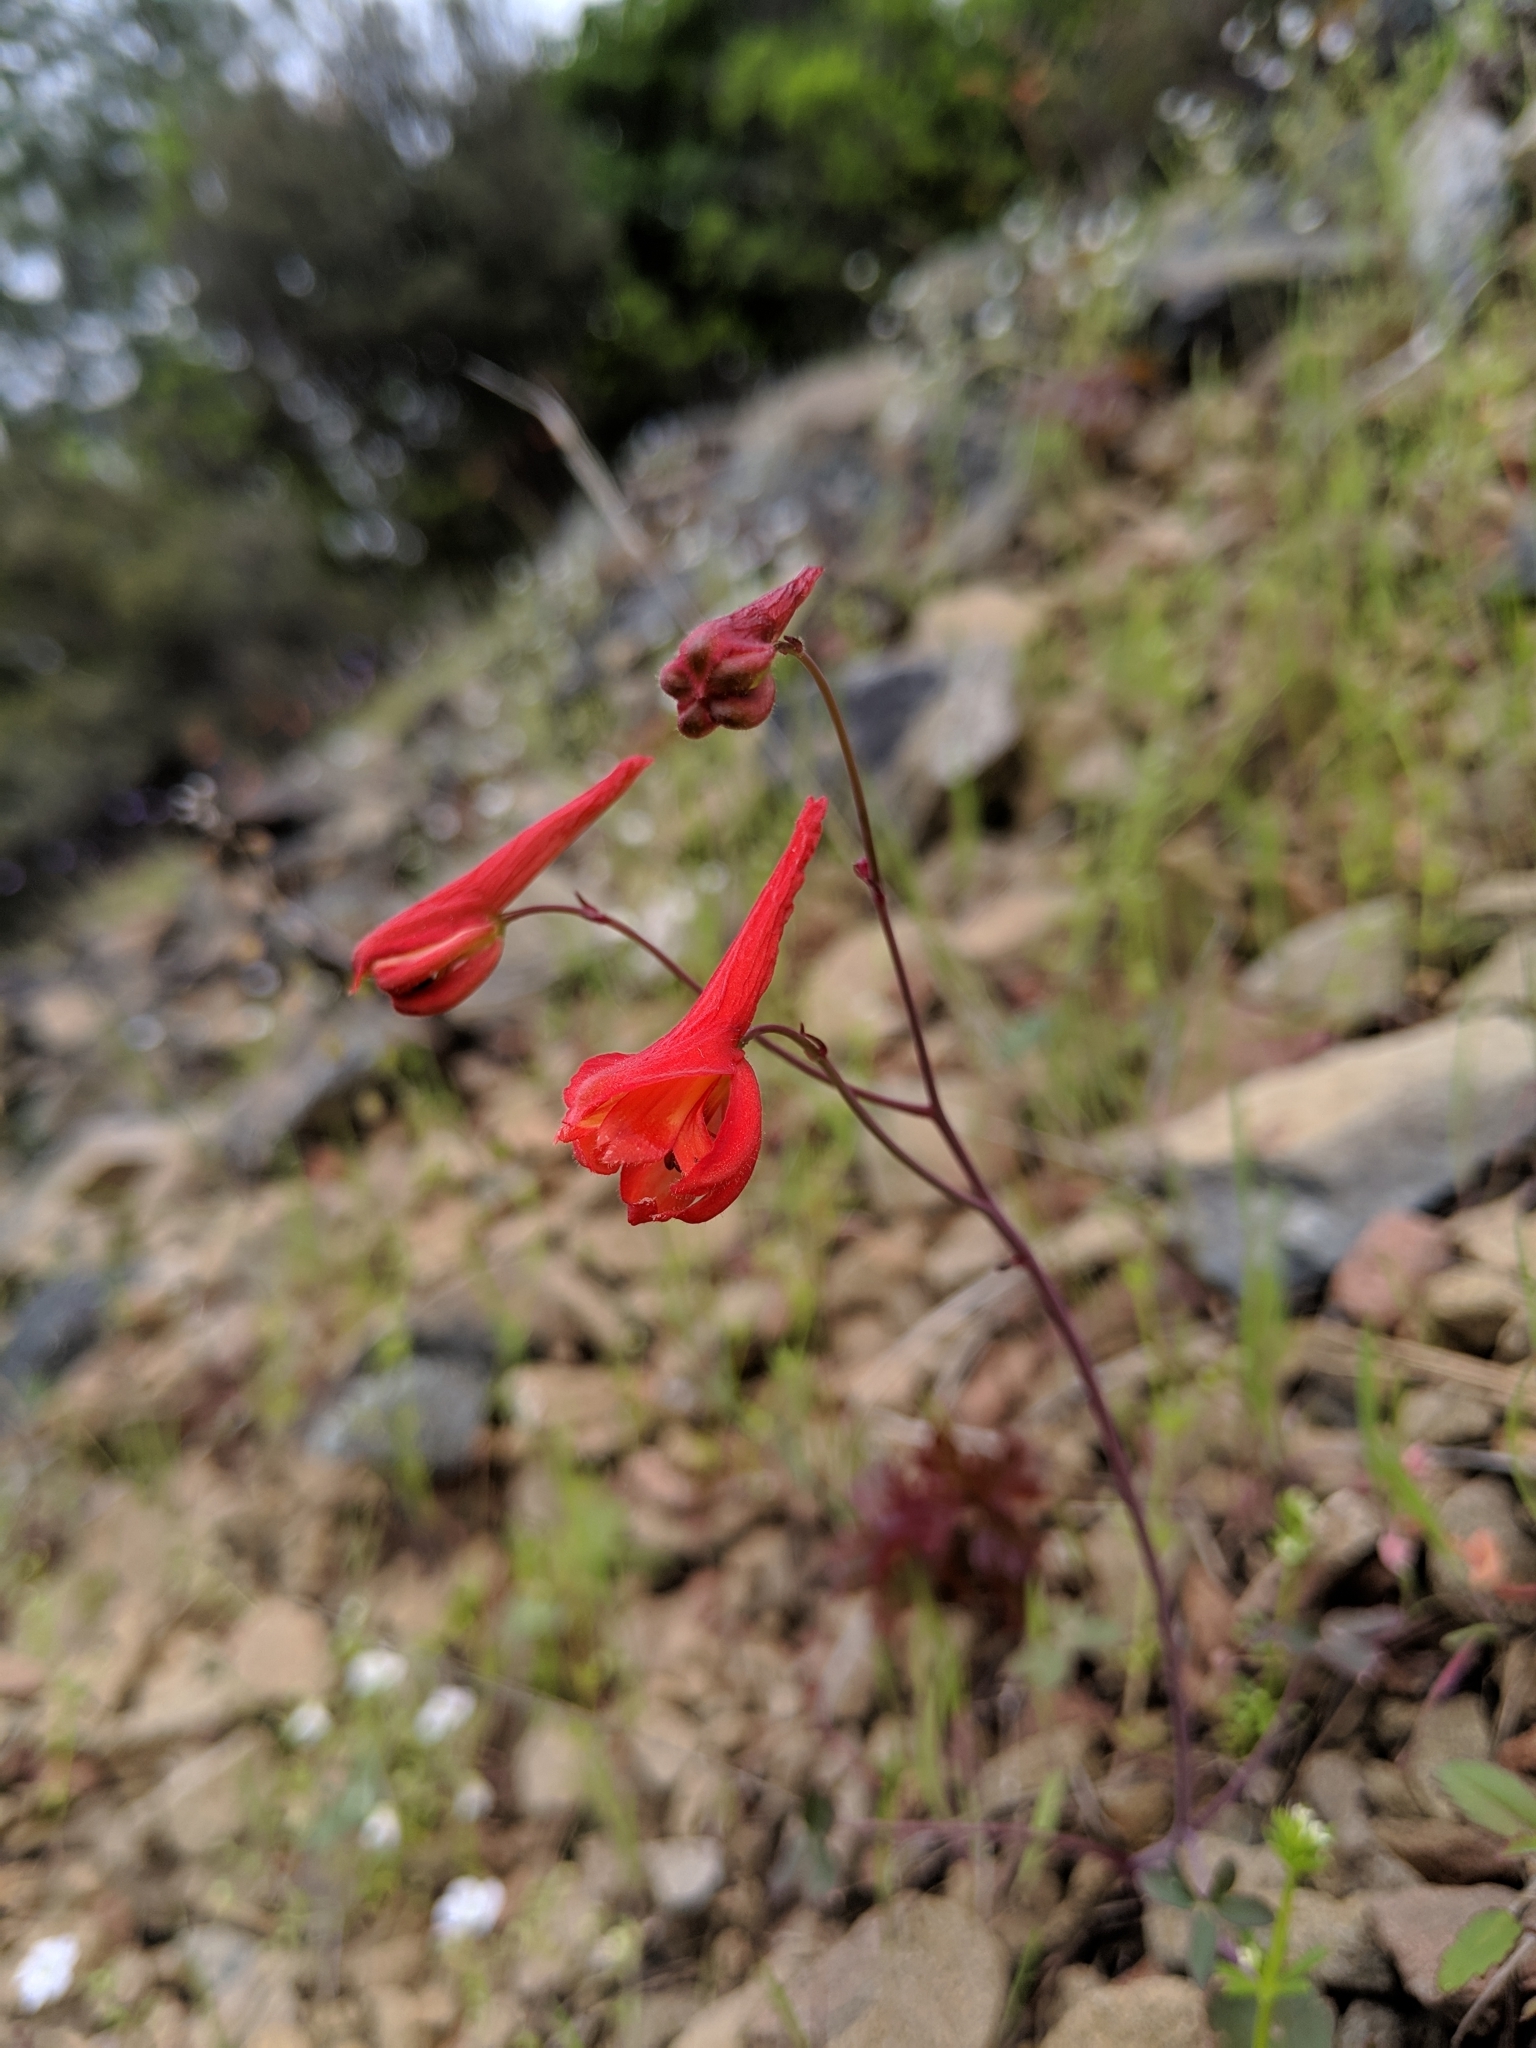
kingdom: Plantae
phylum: Tracheophyta
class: Magnoliopsida
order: Ranunculales
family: Ranunculaceae
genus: Delphinium
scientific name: Delphinium nudicaule
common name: Red larkspur
